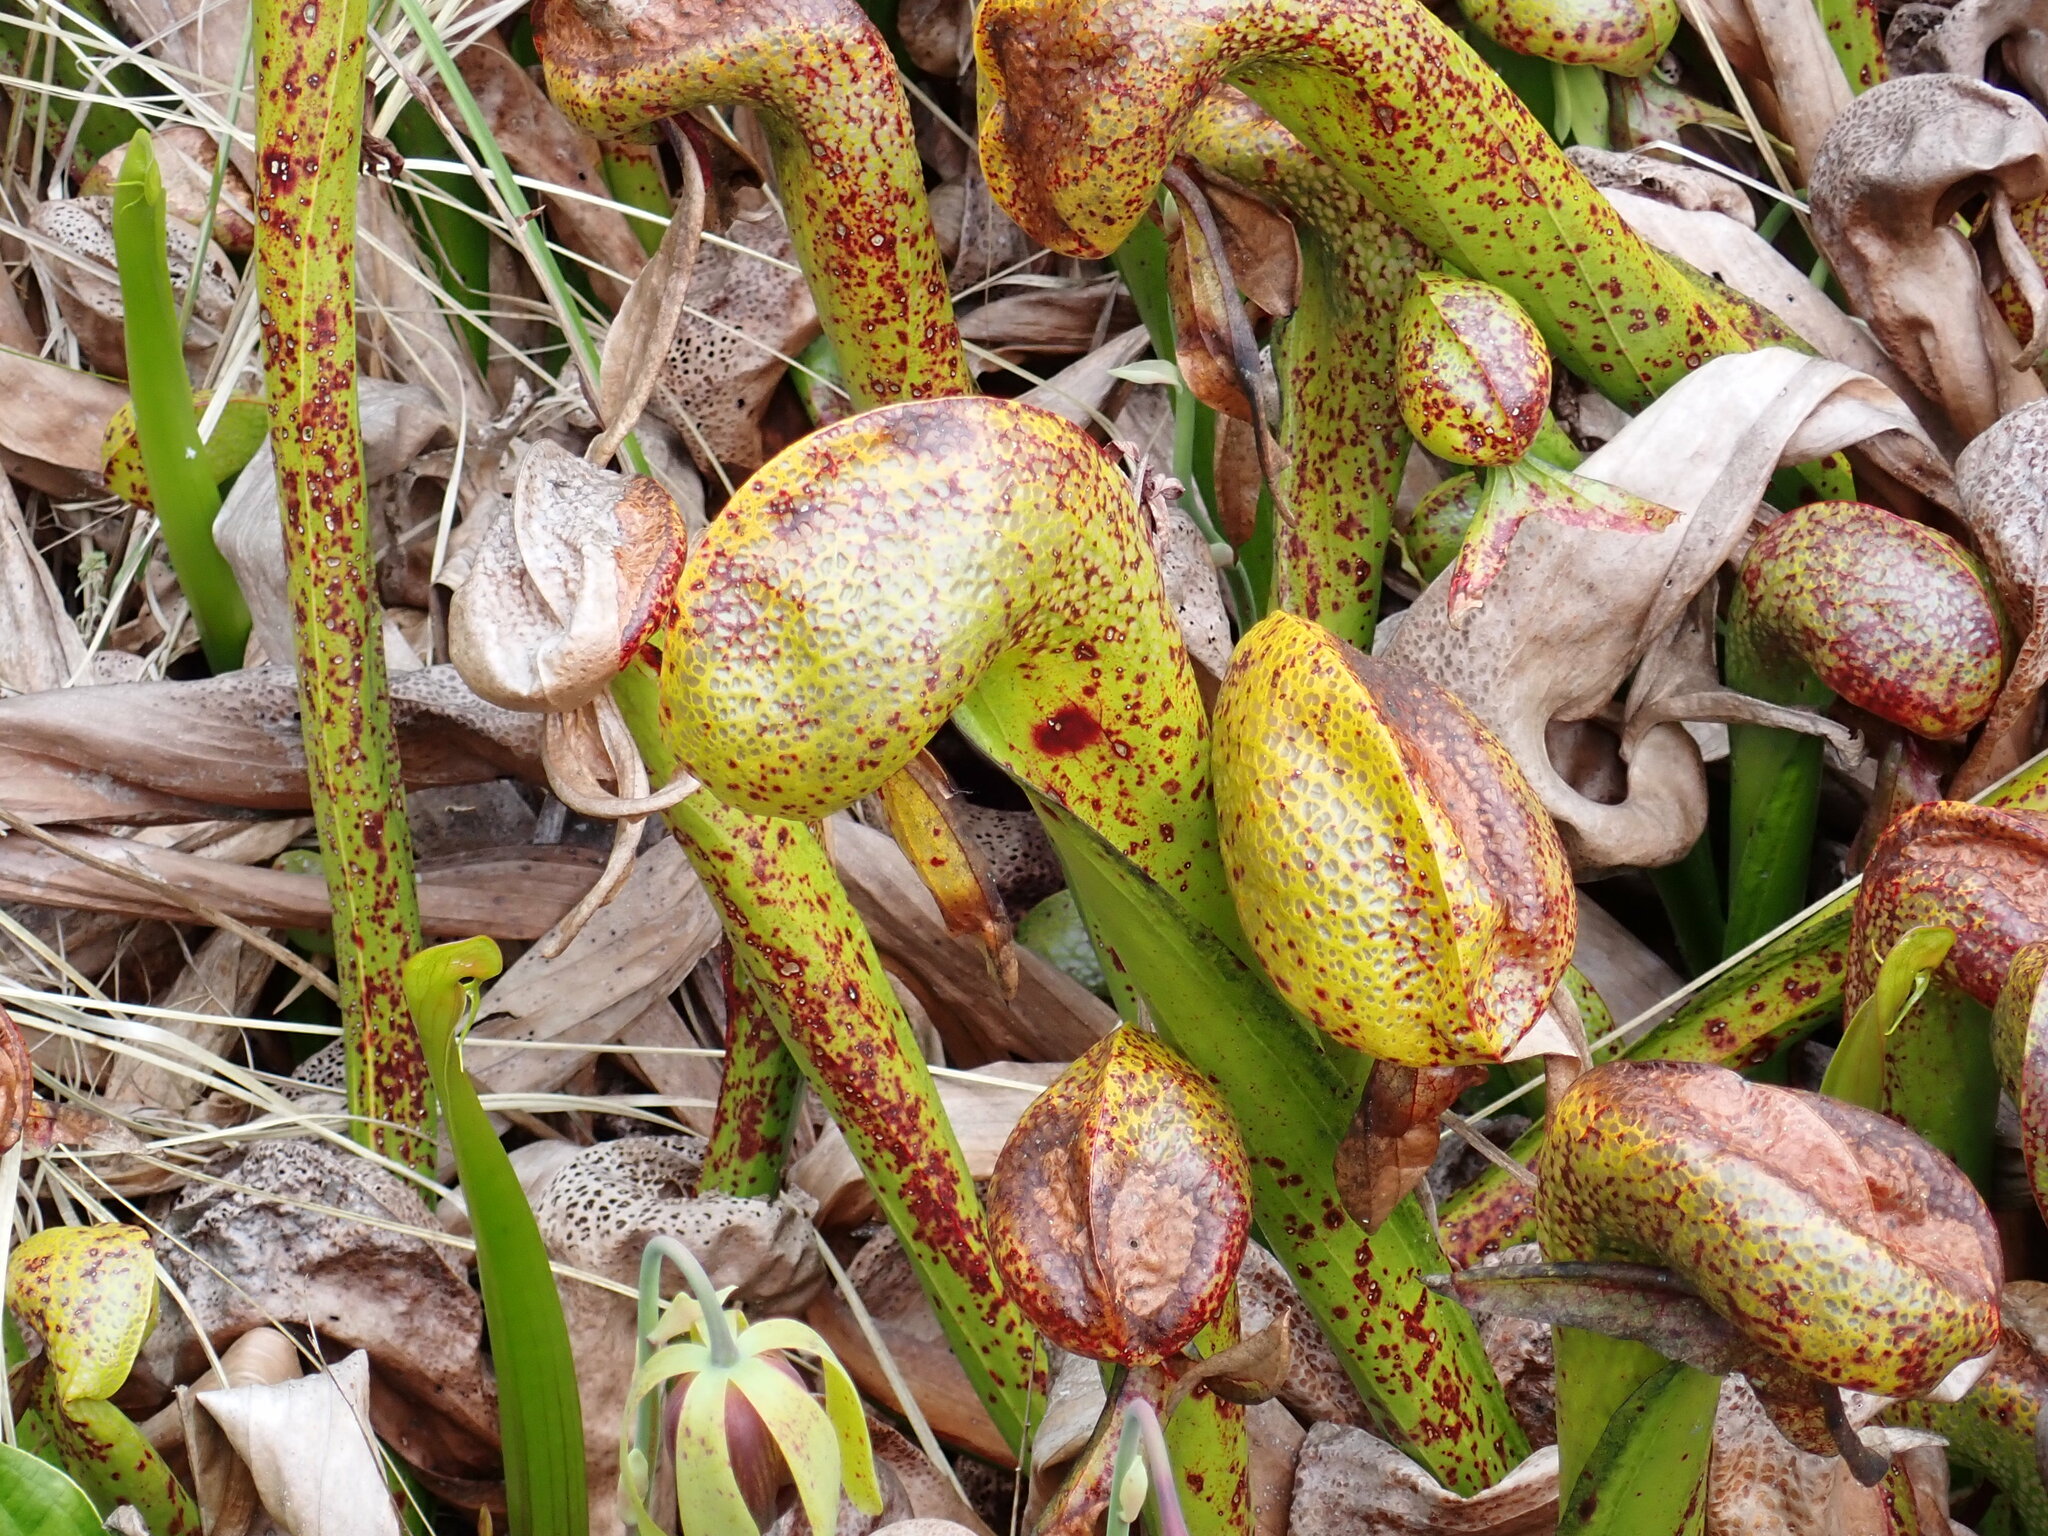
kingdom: Plantae
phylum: Tracheophyta
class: Magnoliopsida
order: Ericales
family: Sarraceniaceae
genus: Darlingtonia
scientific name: Darlingtonia californica
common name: California pitcher plant
